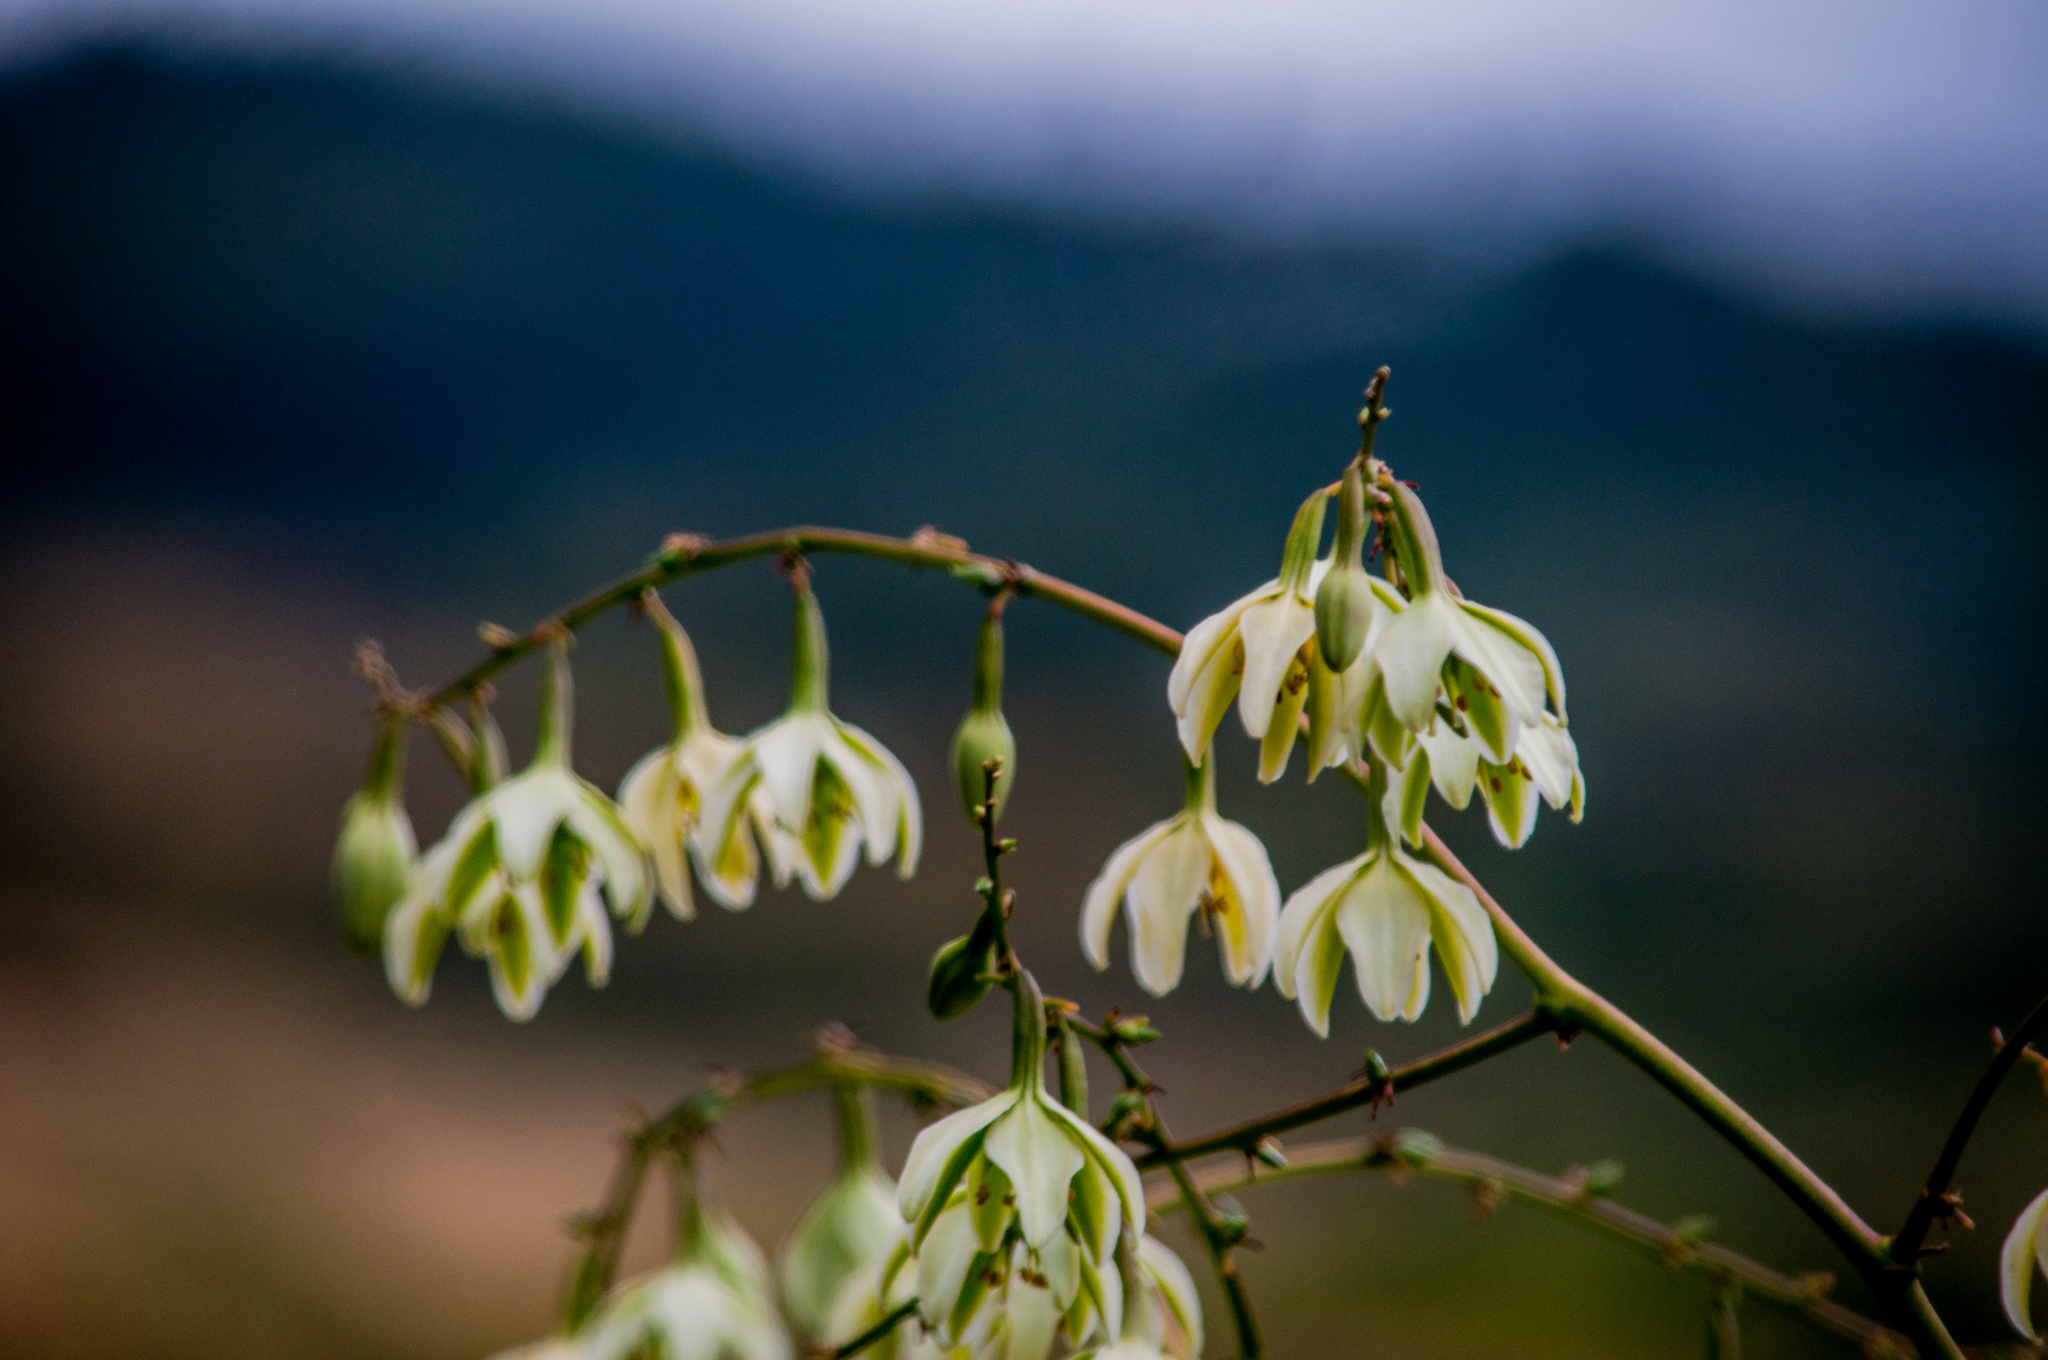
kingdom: Plantae
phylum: Tracheophyta
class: Liliopsida
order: Asparagales
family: Asparagaceae
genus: Furcraea
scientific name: Furcraea foetida
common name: Mauritius hemp
